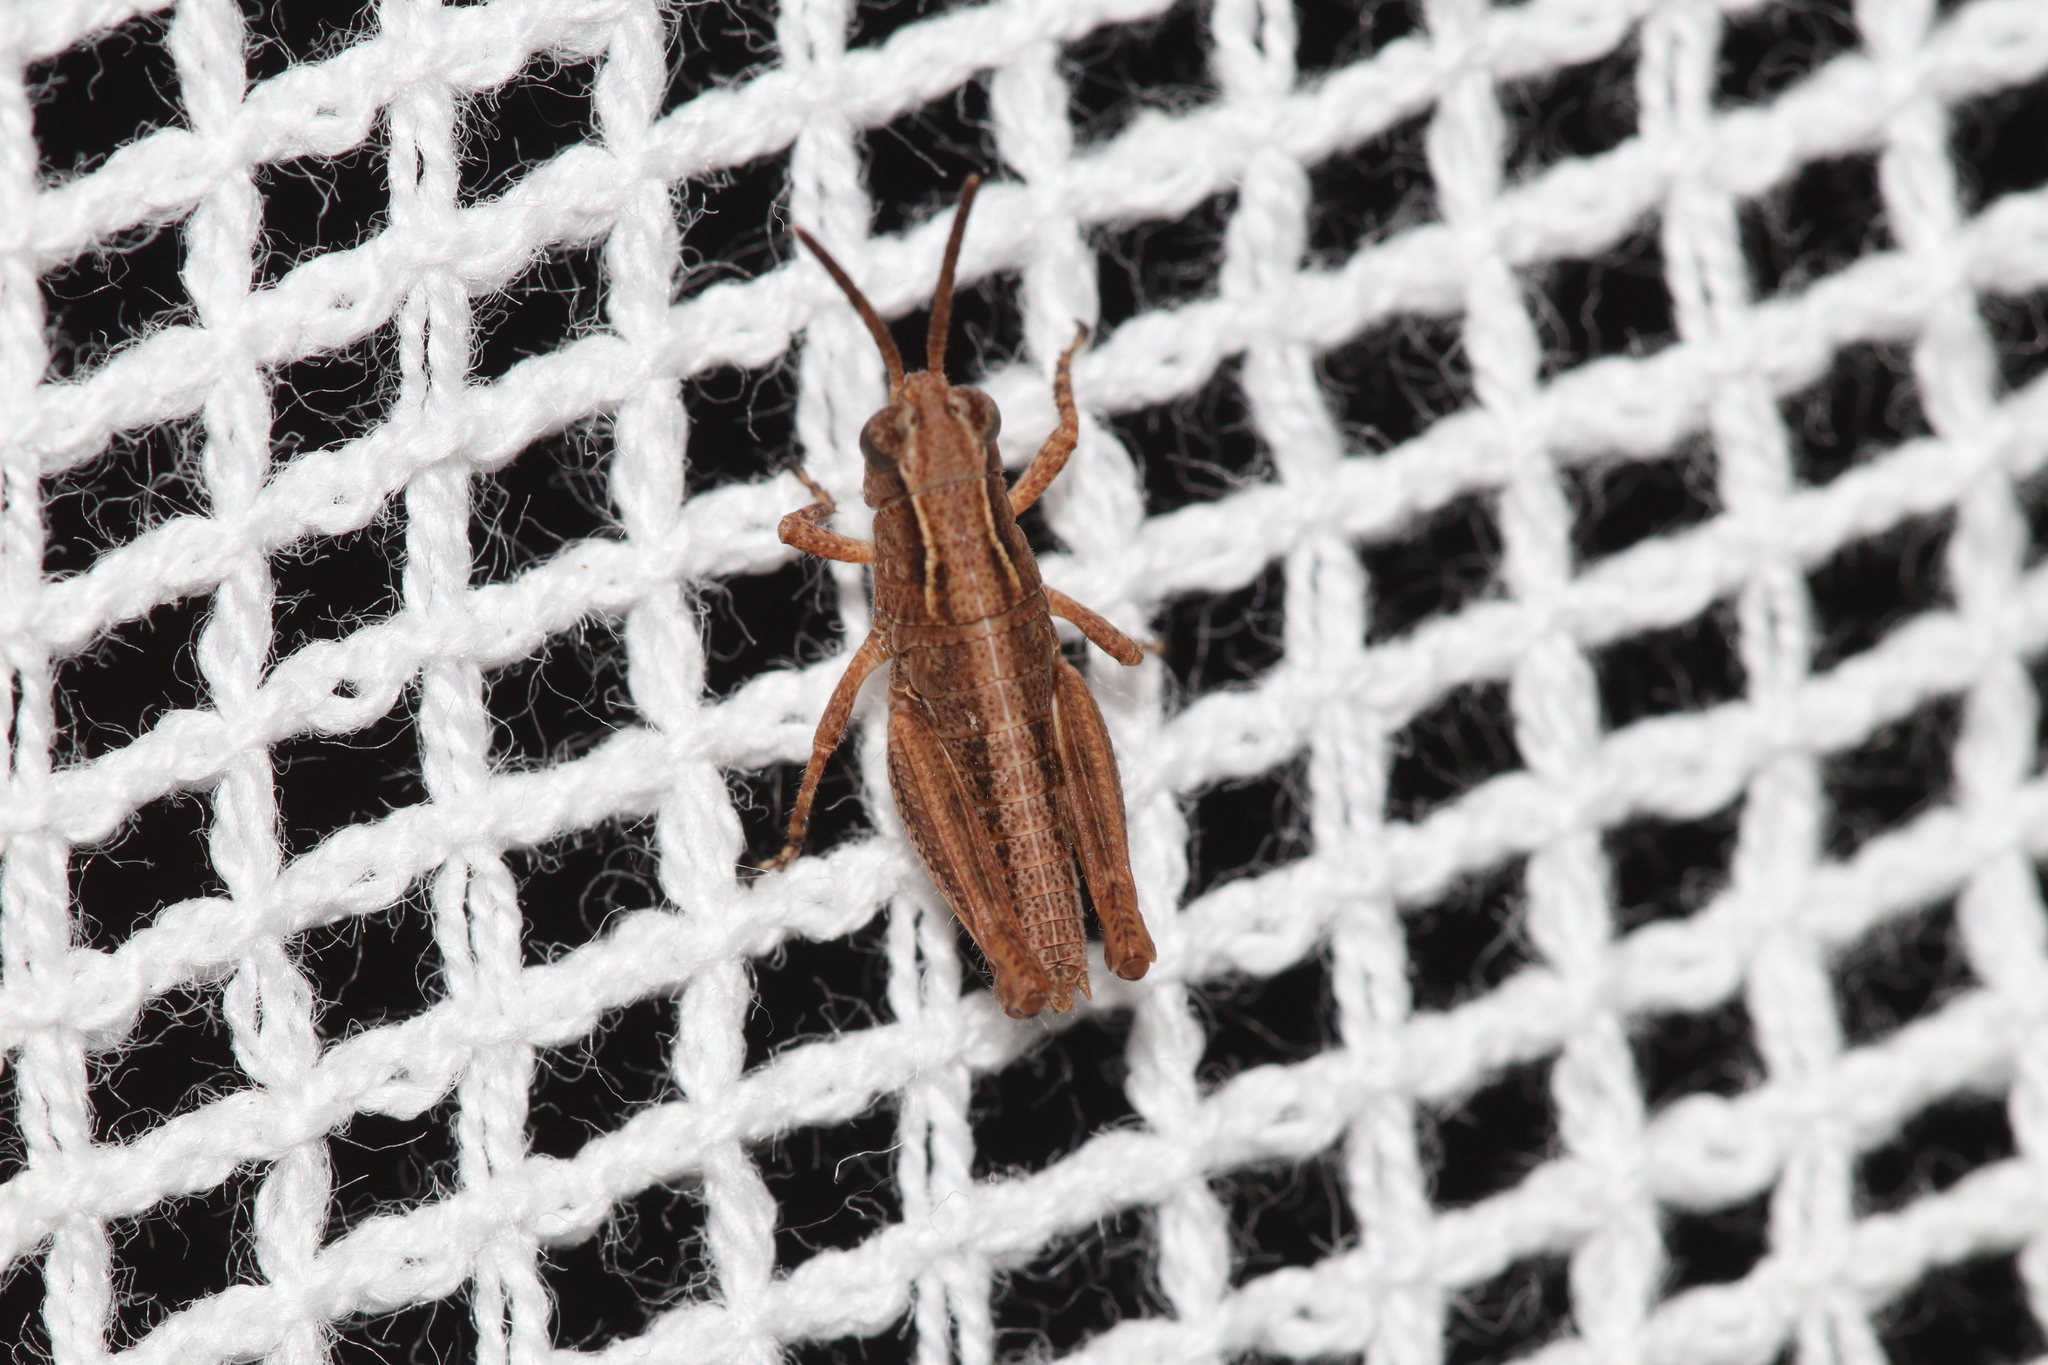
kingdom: Animalia
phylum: Arthropoda
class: Insecta
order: Orthoptera
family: Acrididae
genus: Phaulacridium
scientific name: Phaulacridium vittatum
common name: Wingless grasshopper
